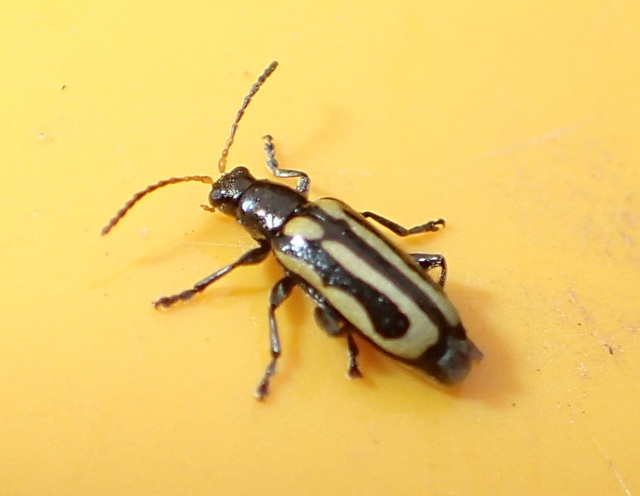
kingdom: Animalia
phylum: Arthropoda
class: Insecta
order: Coleoptera
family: Chrysomelidae
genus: Agasicles
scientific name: Agasicles hygrophila
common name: Alligatorweed flea beetle
